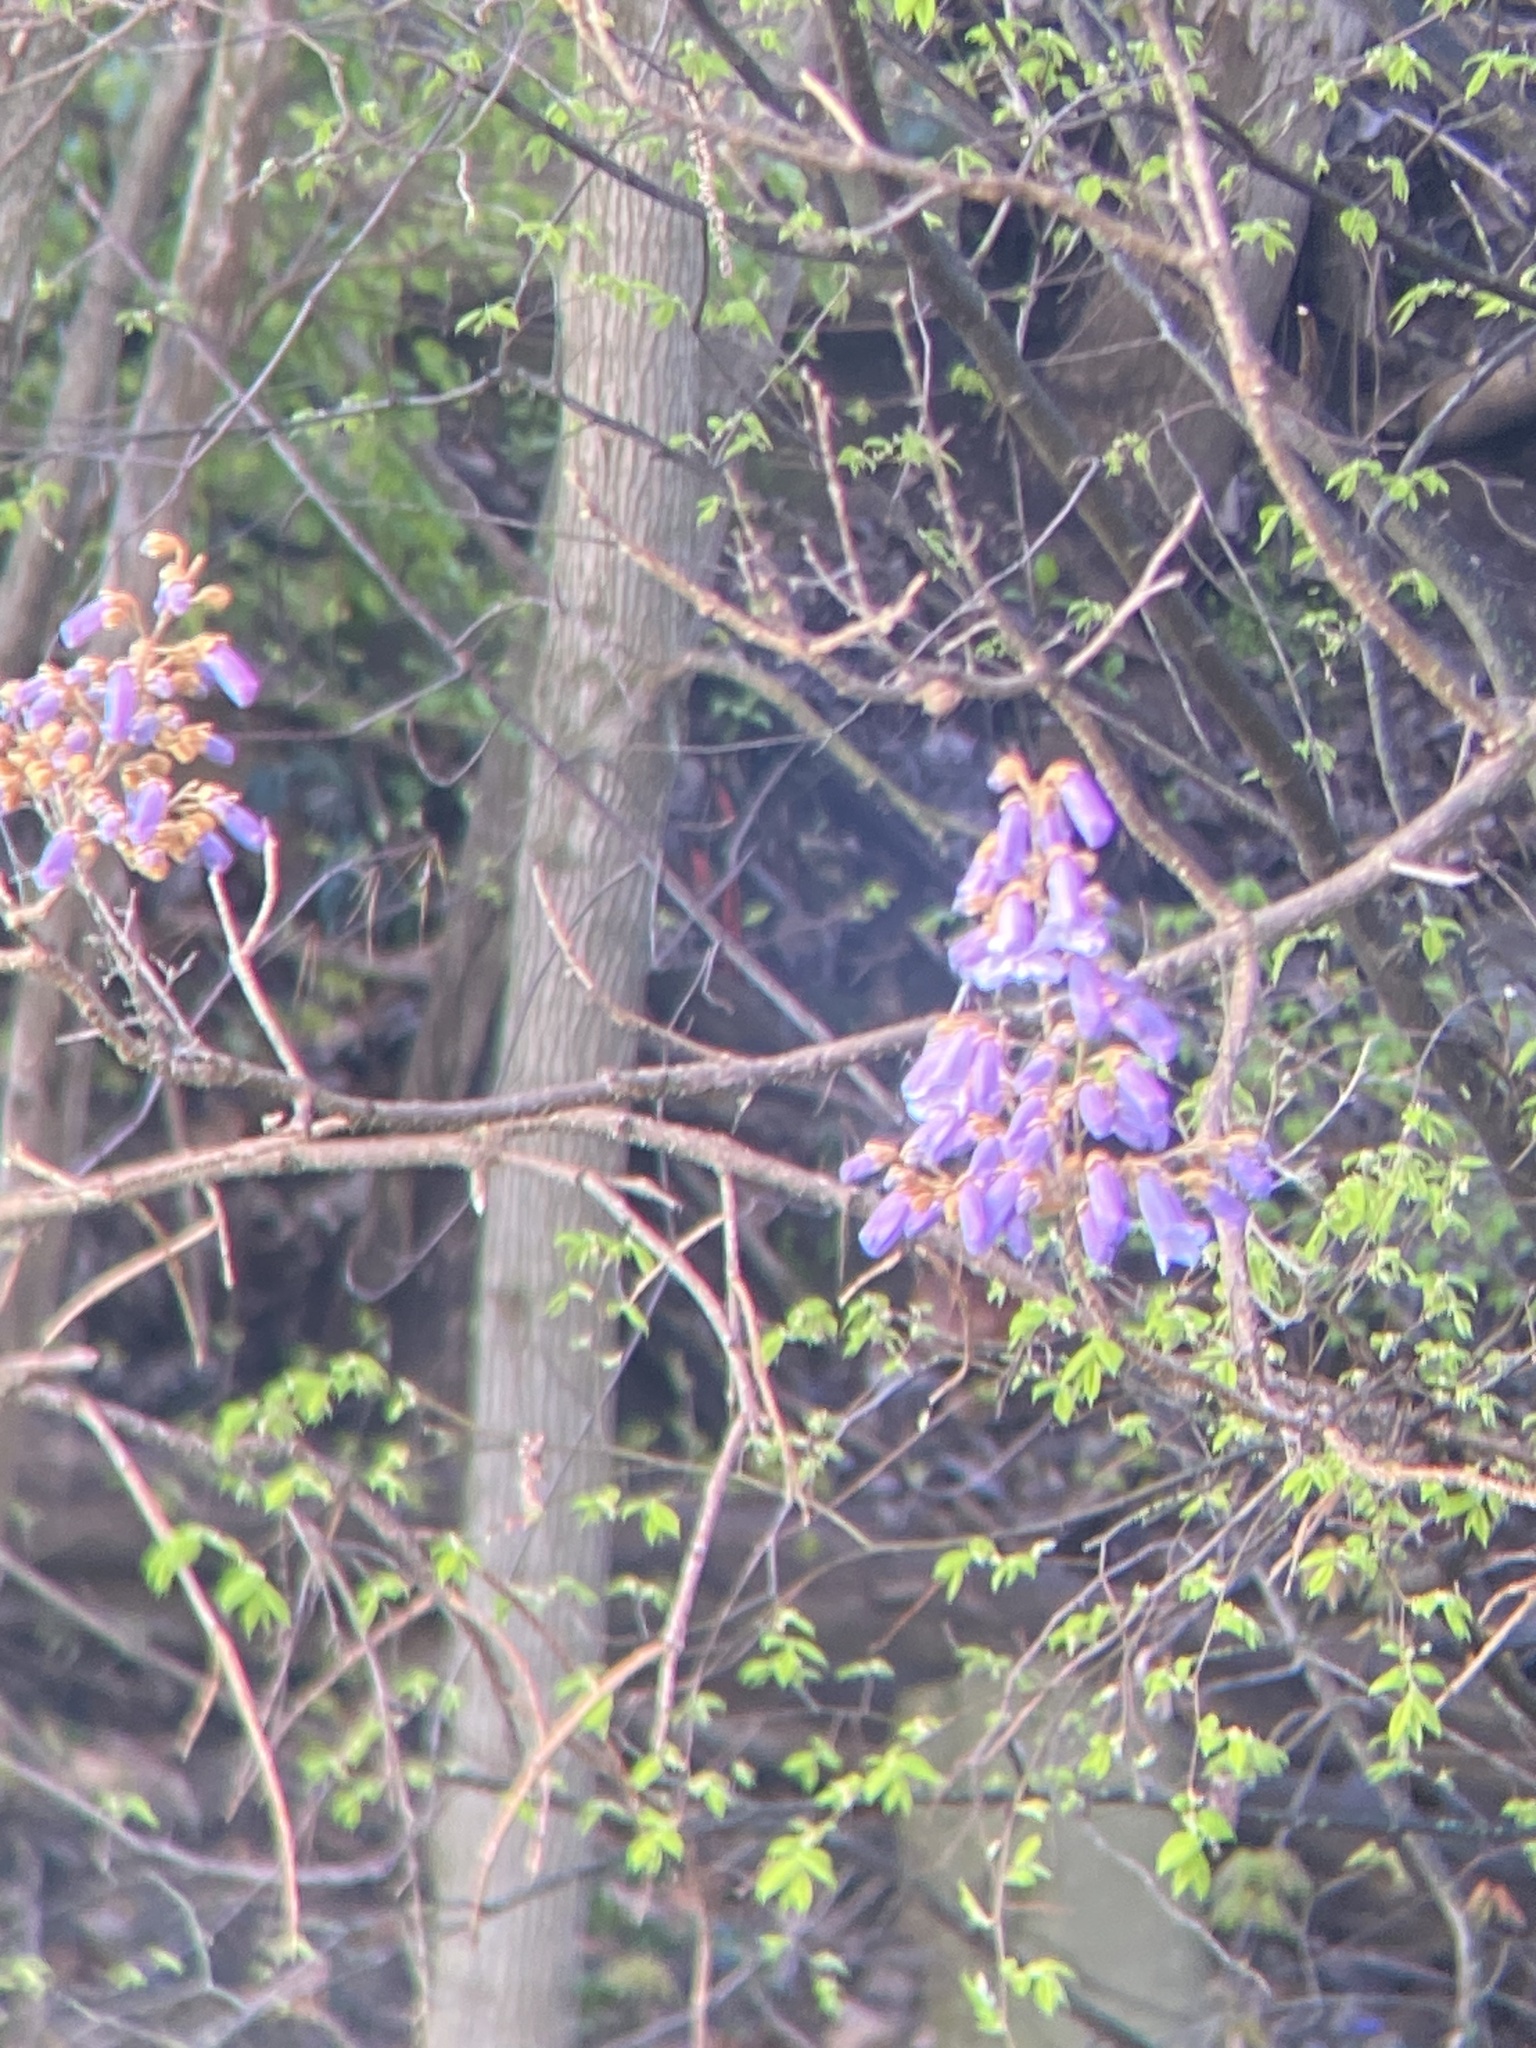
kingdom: Plantae
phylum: Tracheophyta
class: Magnoliopsida
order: Lamiales
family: Paulowniaceae
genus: Paulownia
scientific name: Paulownia tomentosa
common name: Foxglove-tree
